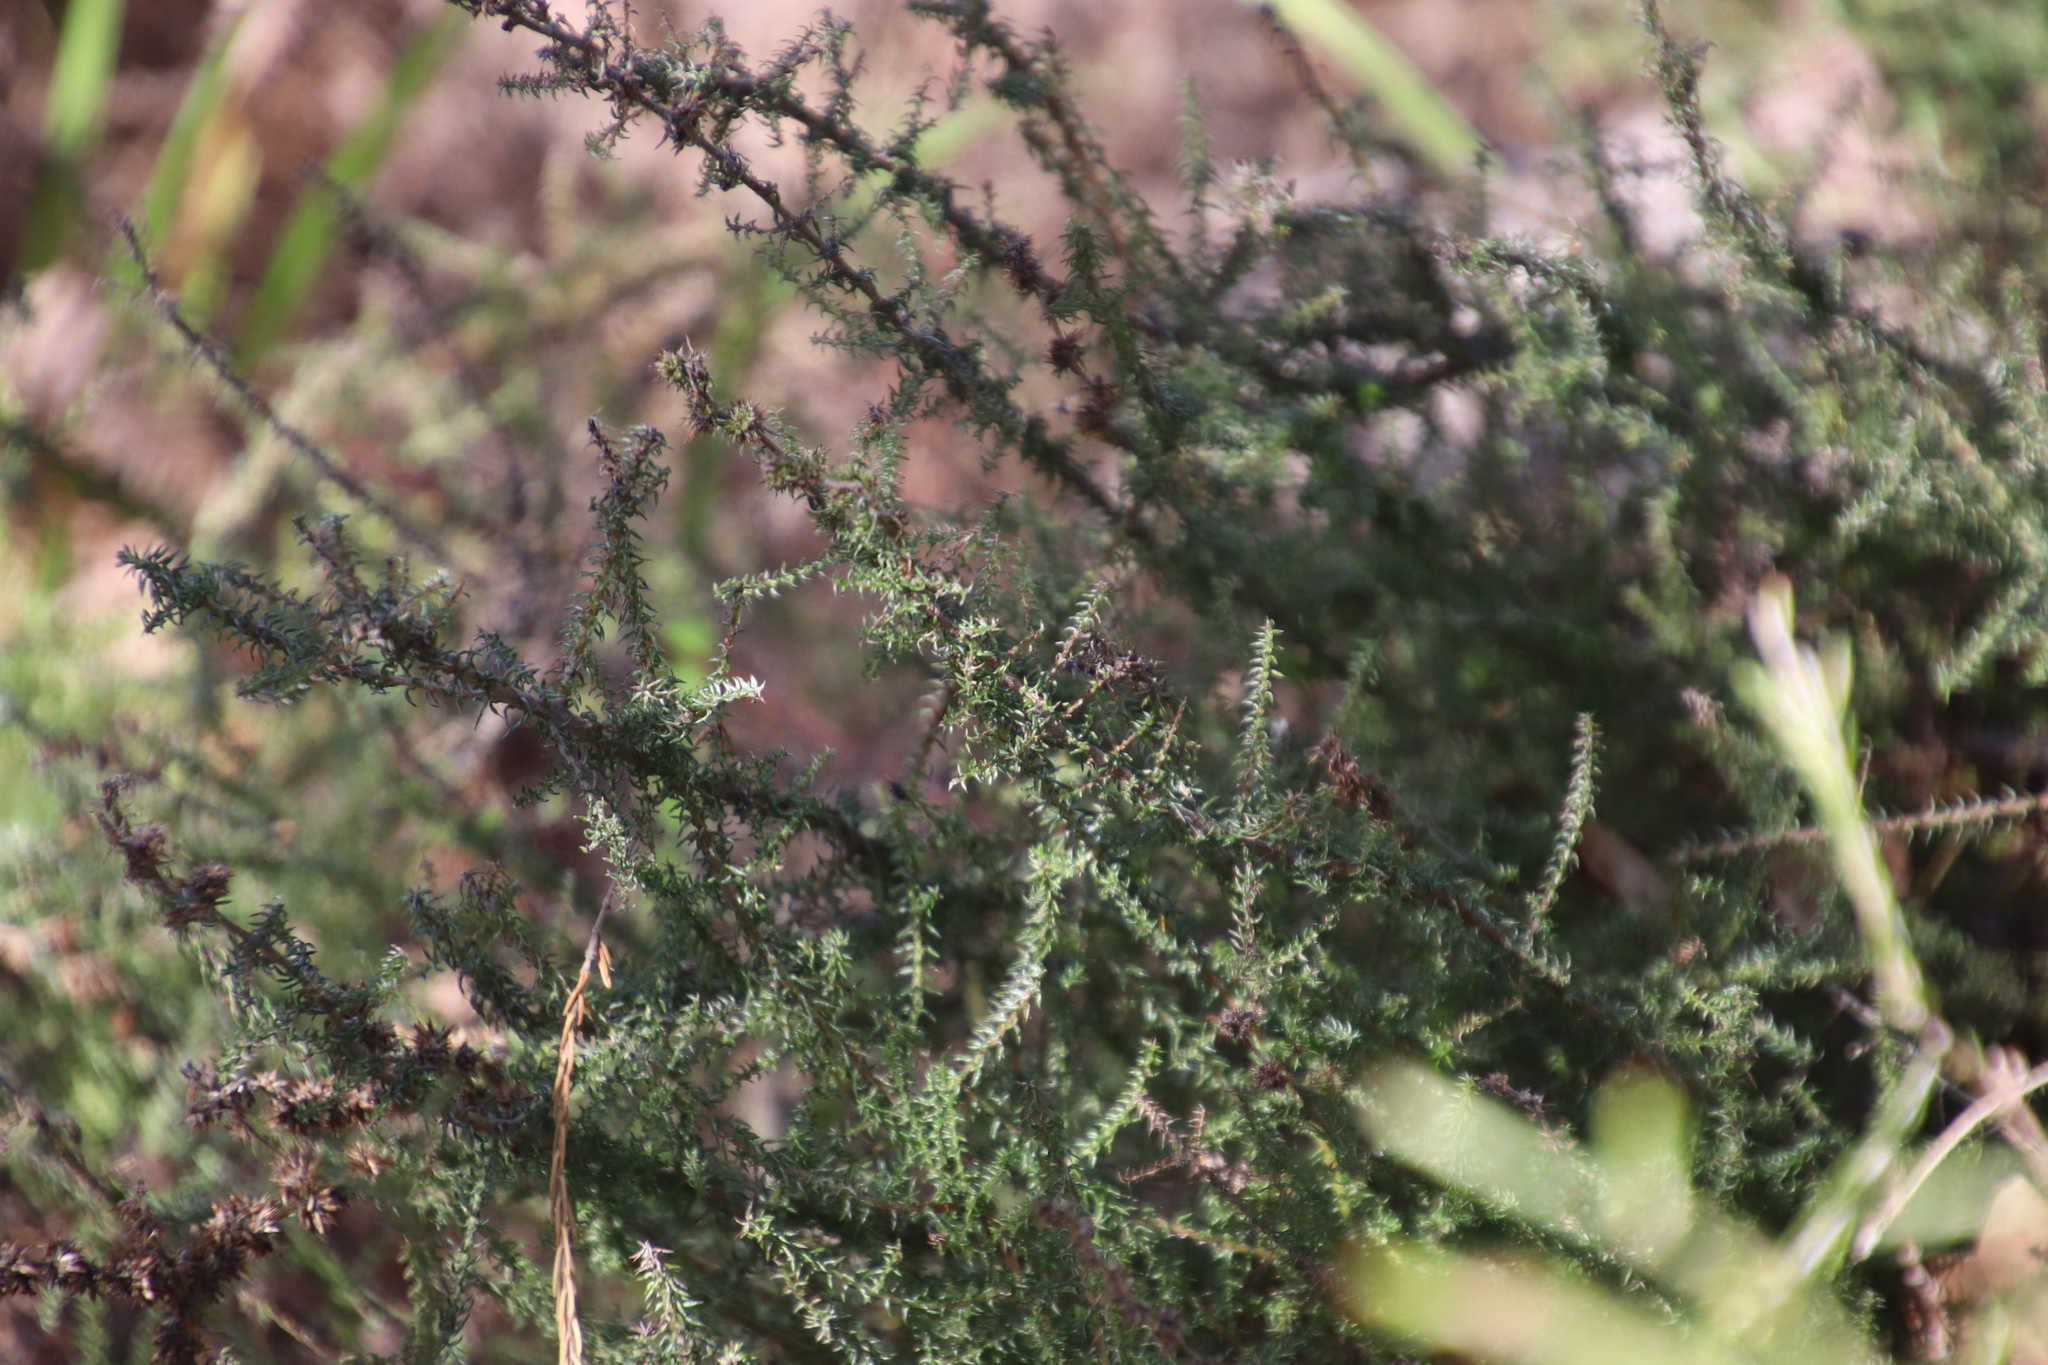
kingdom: Plantae
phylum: Tracheophyta
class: Magnoliopsida
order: Asterales
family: Asteraceae
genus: Seriphium
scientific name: Seriphium cinereum
